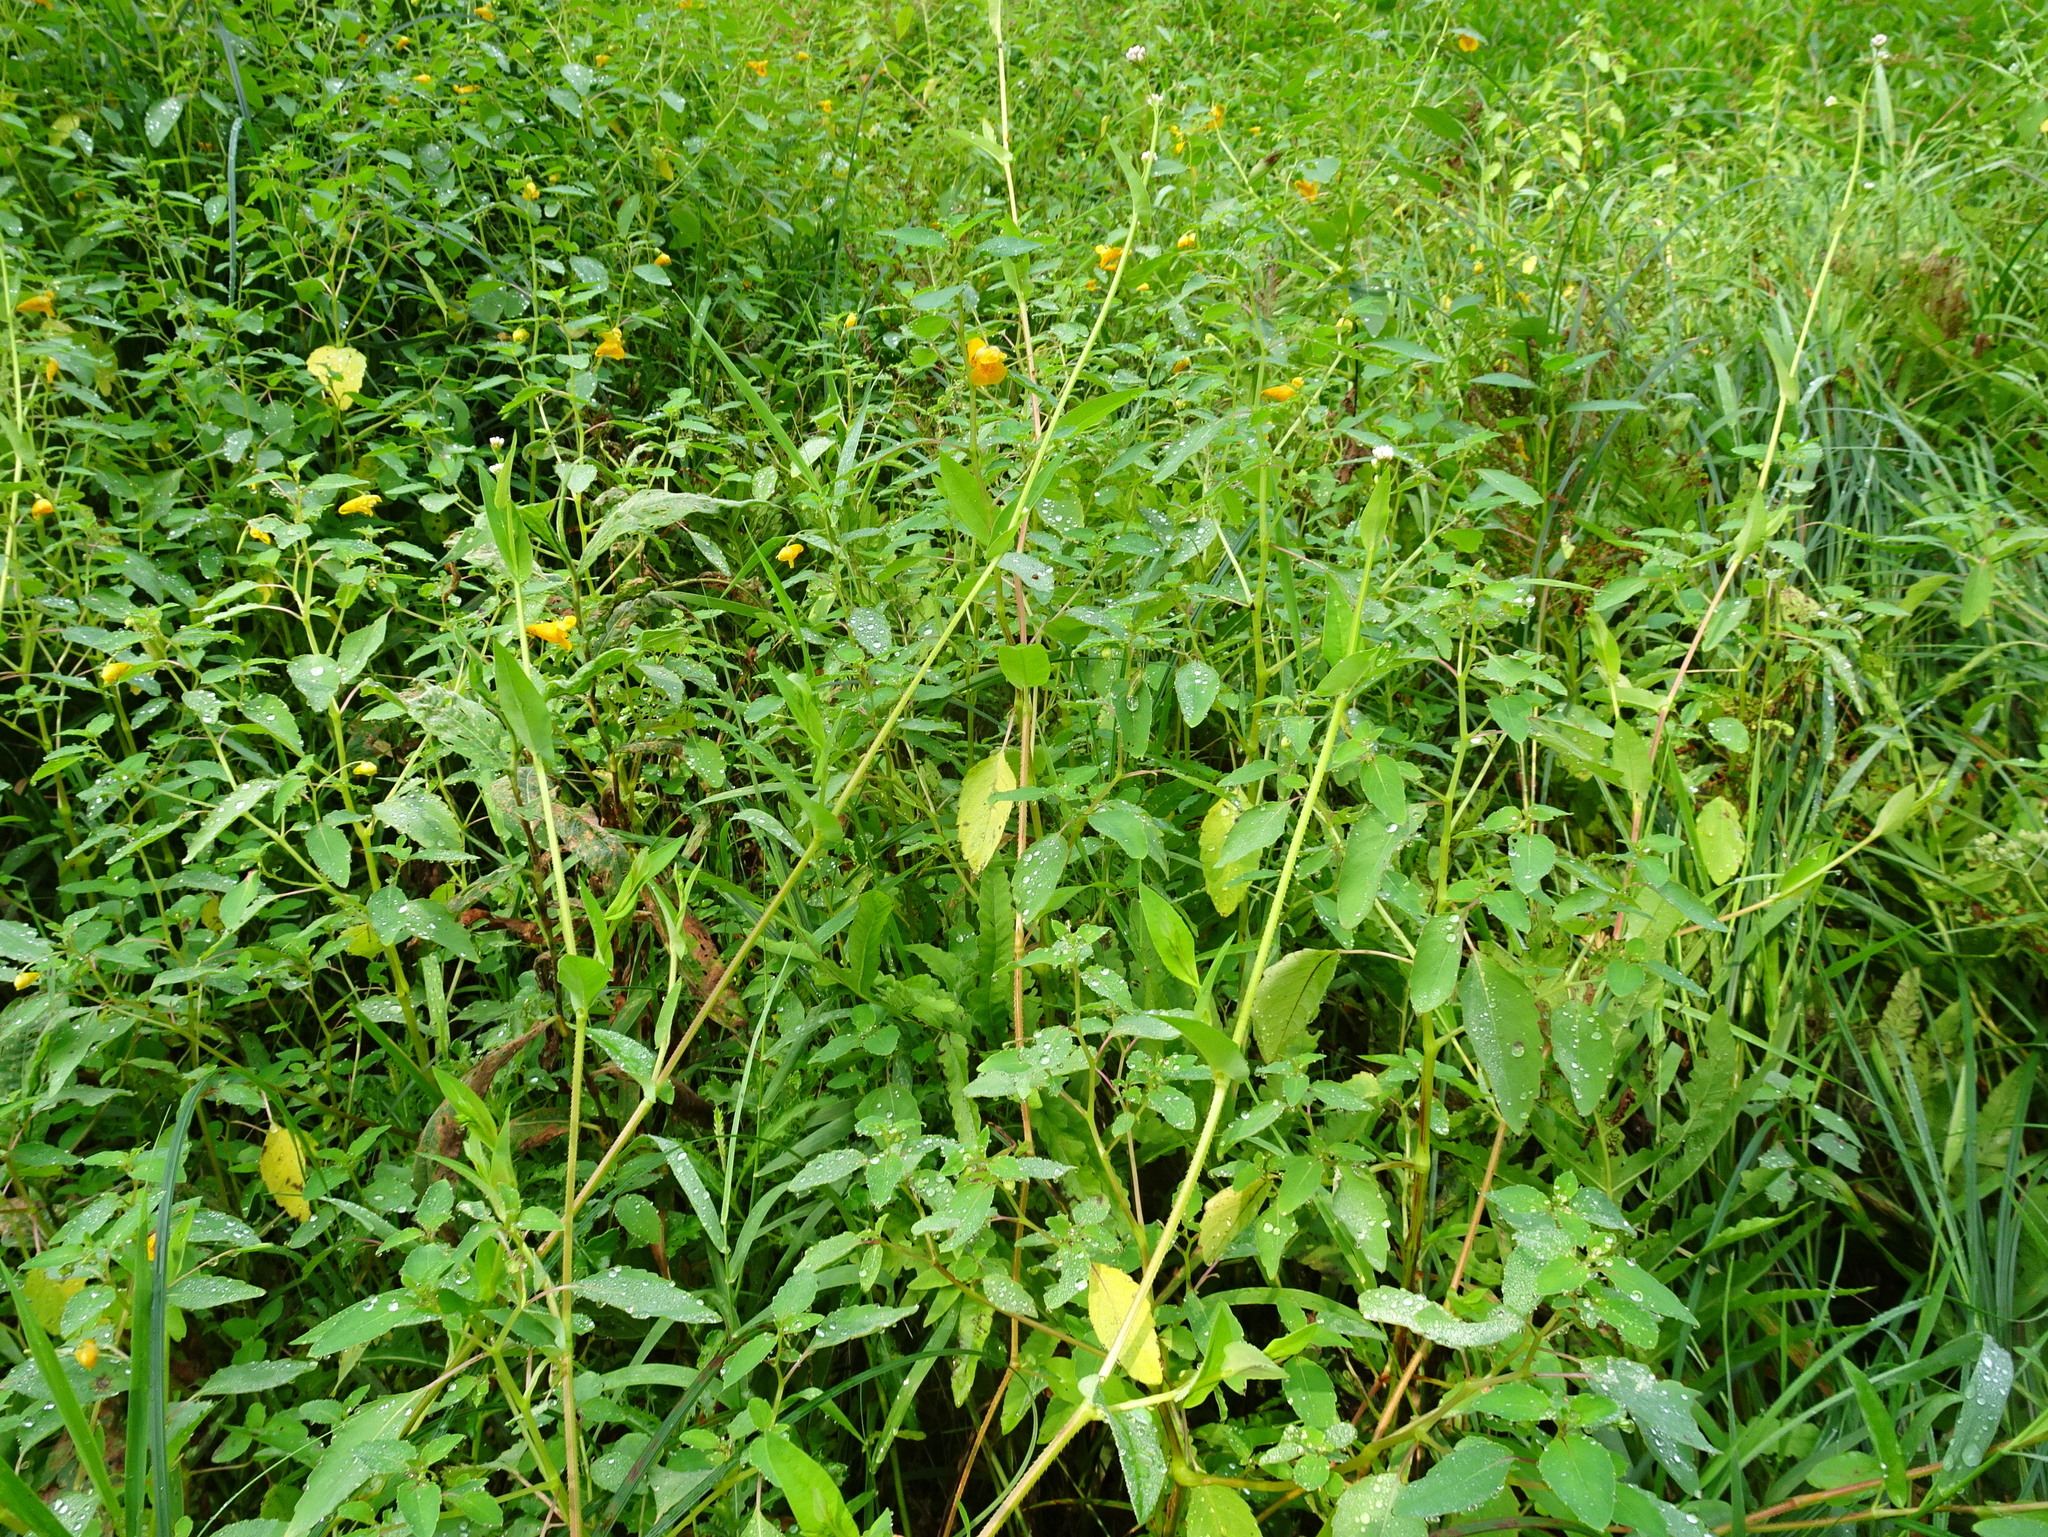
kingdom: Plantae
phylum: Tracheophyta
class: Magnoliopsida
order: Caryophyllales
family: Polygonaceae
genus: Persicaria
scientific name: Persicaria sagittata
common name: American tearthumb
